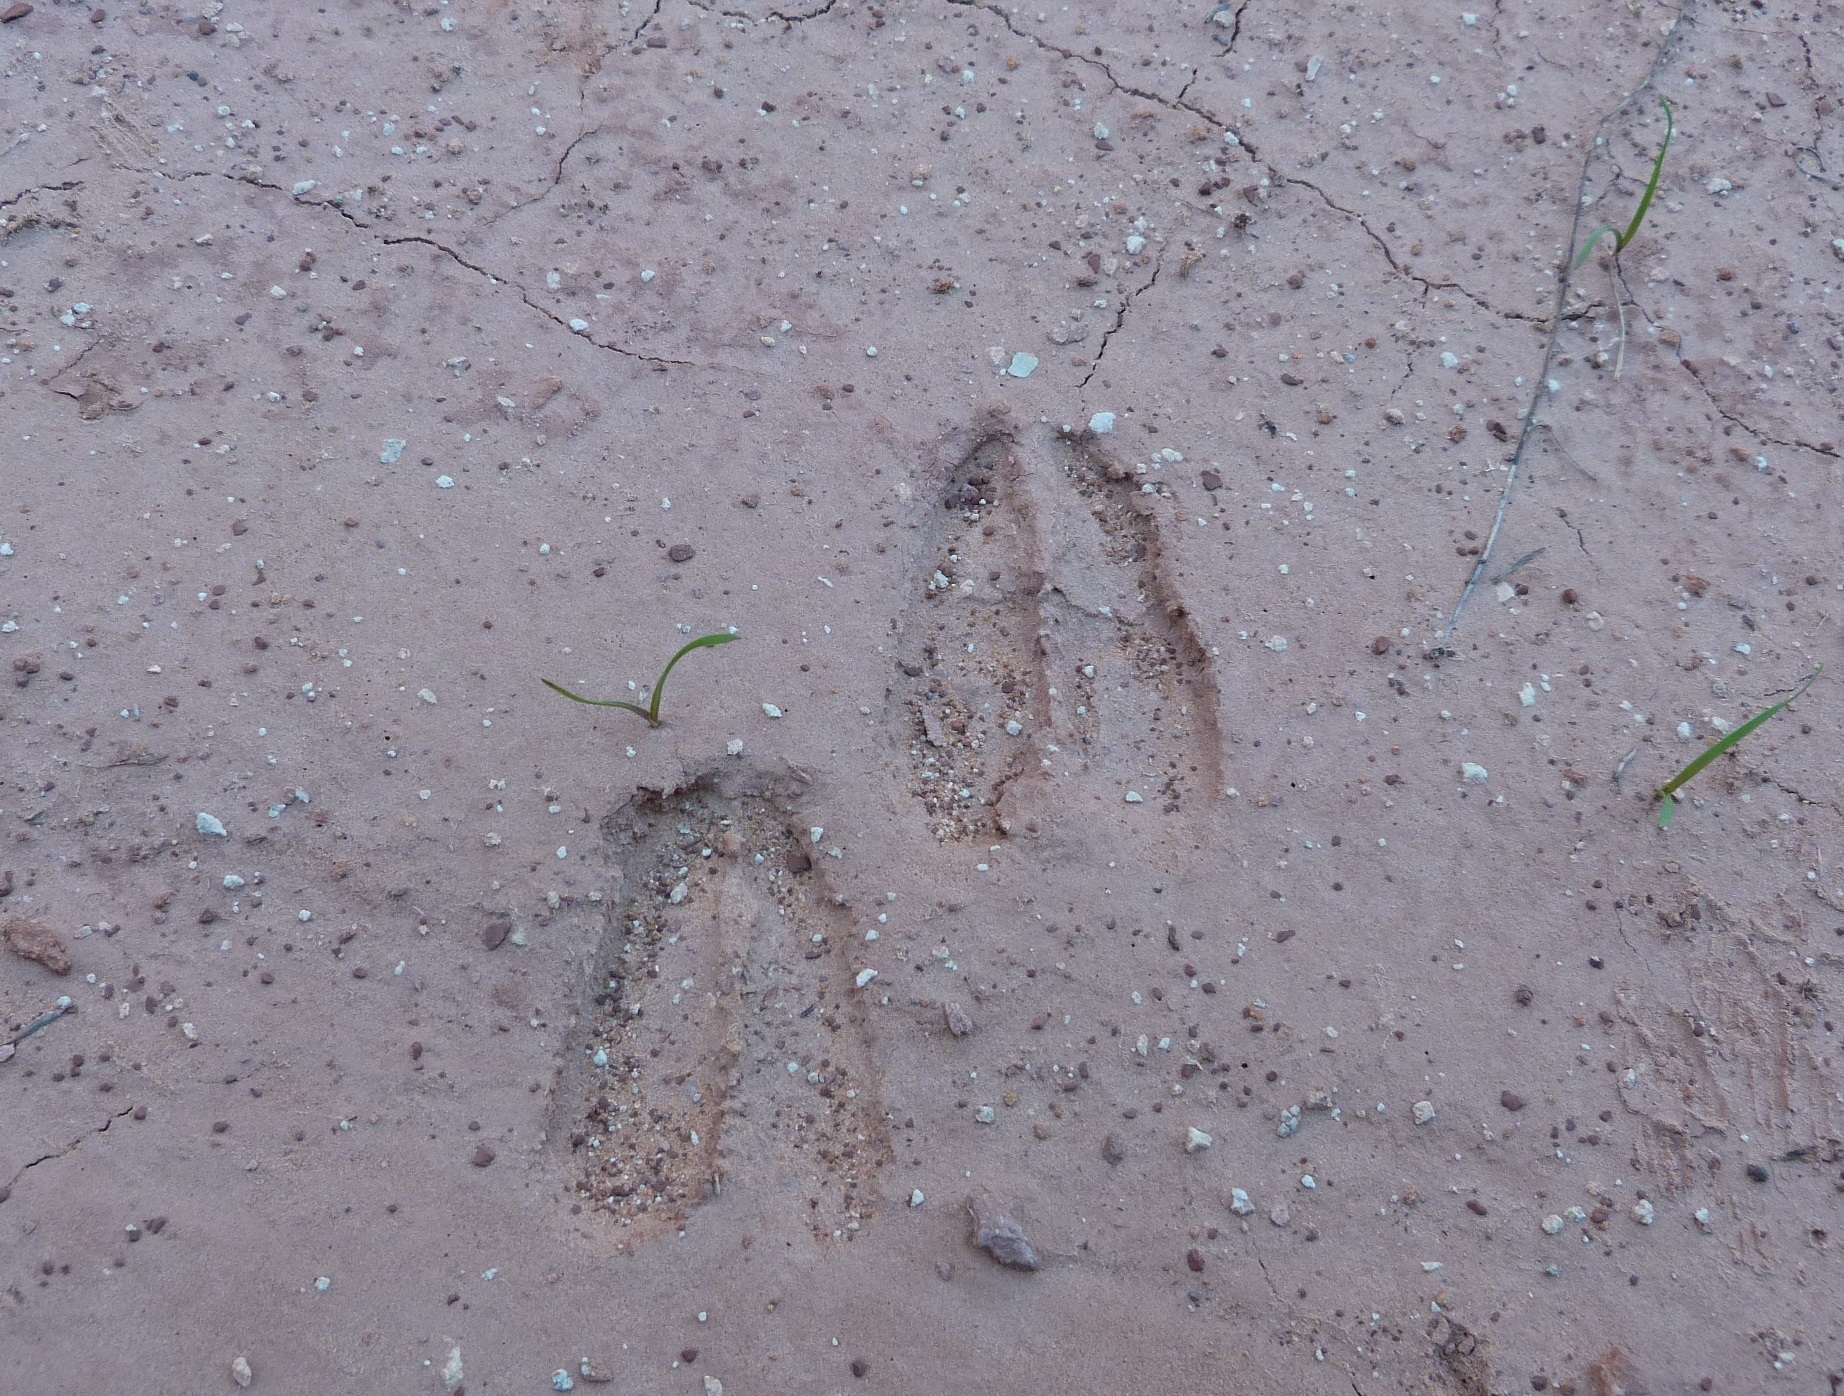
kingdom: Animalia
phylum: Chordata
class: Mammalia
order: Artiodactyla
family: Cervidae
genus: Odocoileus
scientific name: Odocoileus hemionus
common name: Mule deer
